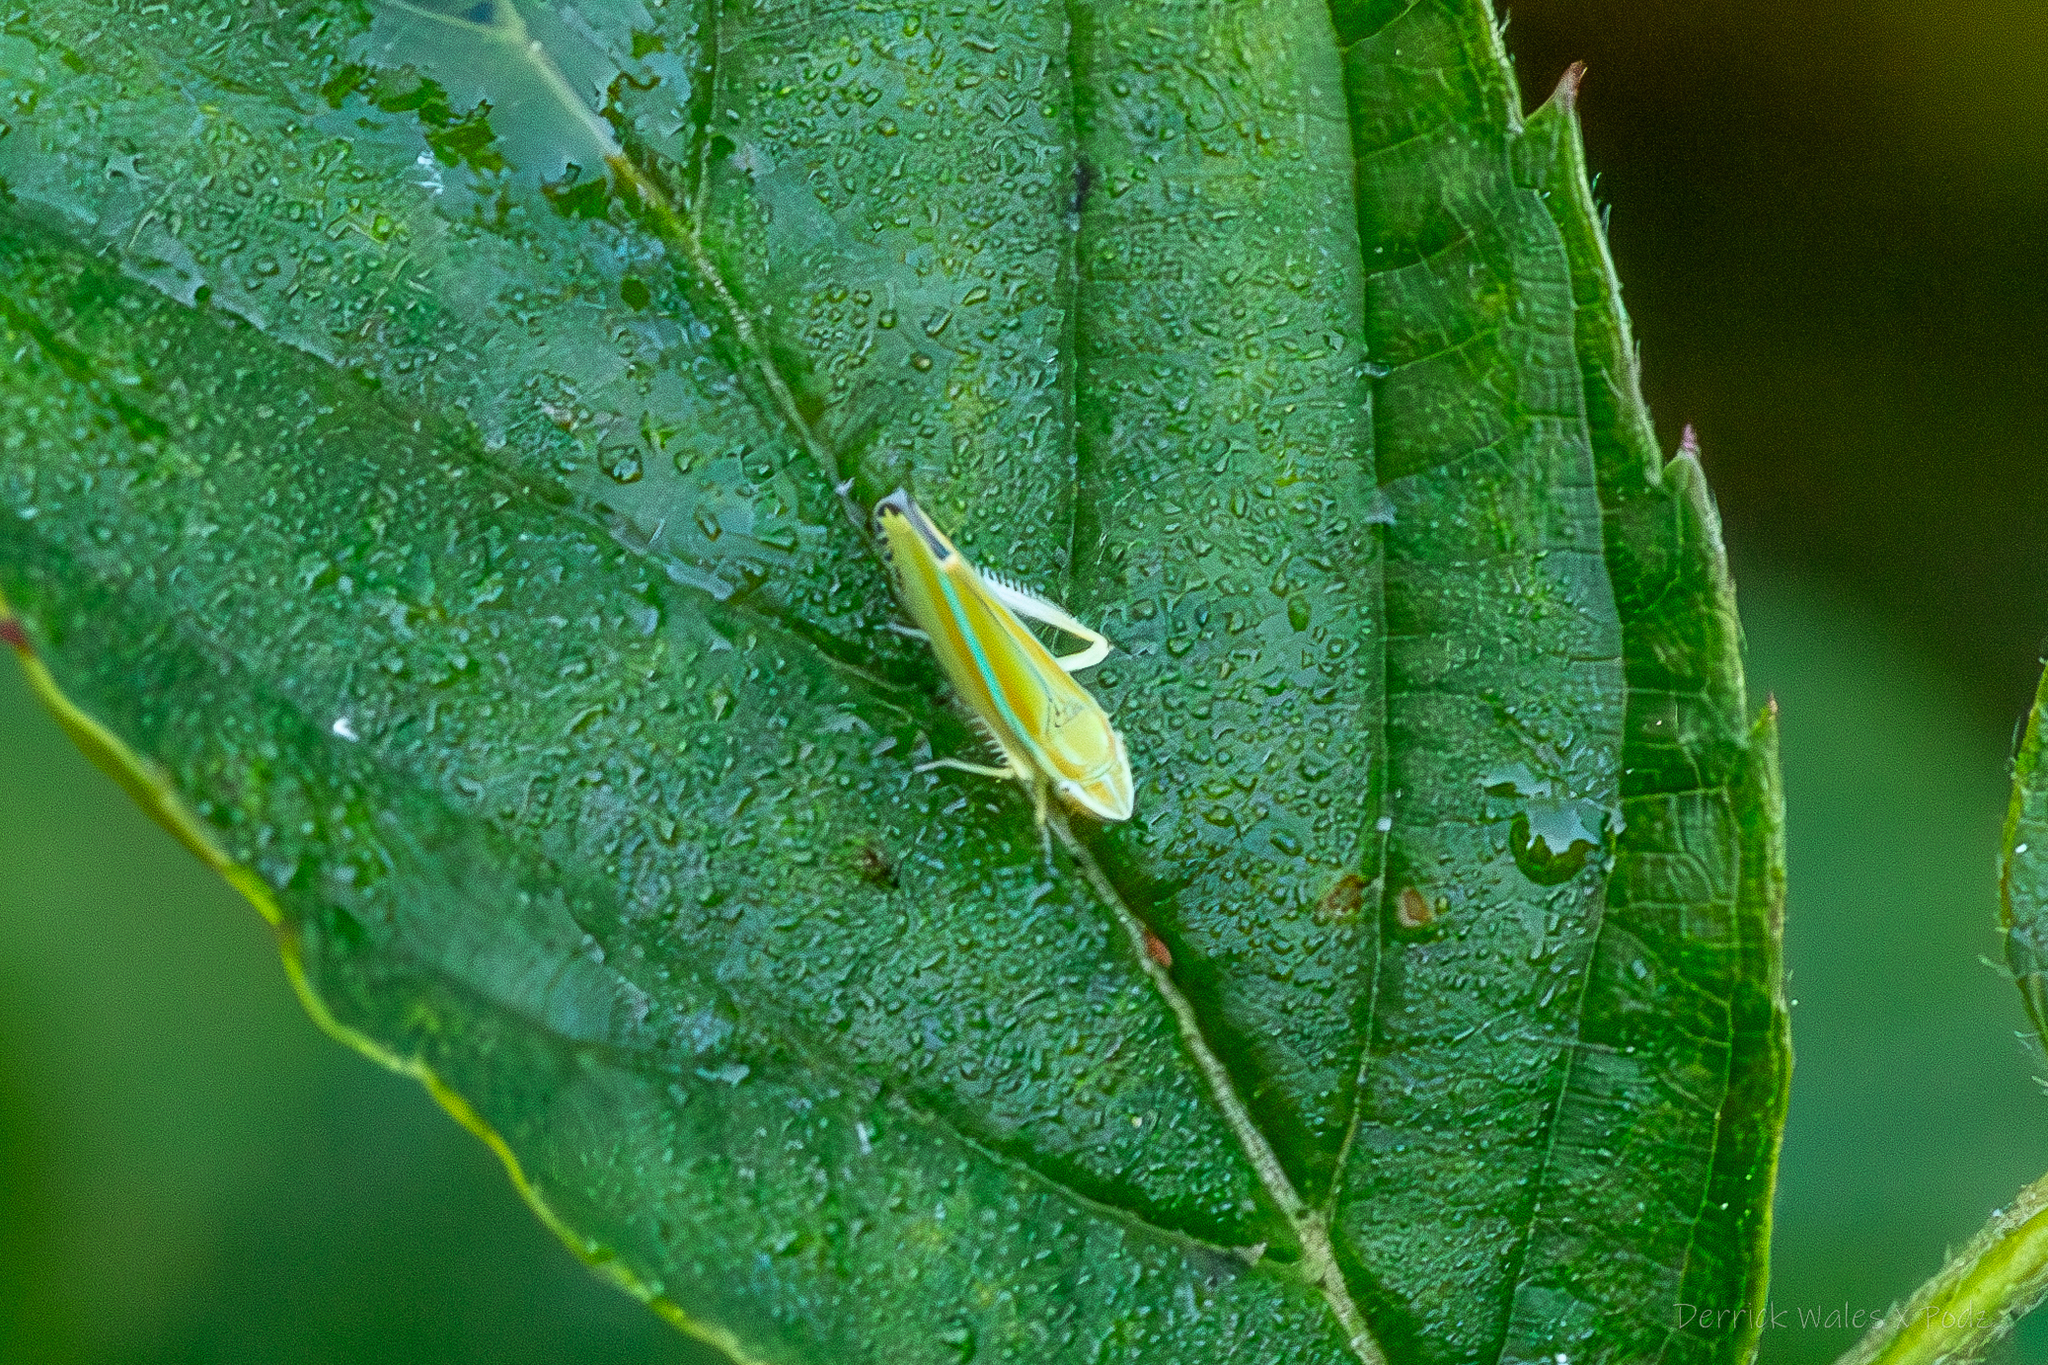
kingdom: Animalia
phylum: Arthropoda
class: Insecta
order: Hemiptera
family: Cicadellidae
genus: Graphocephala
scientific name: Graphocephala versuta
